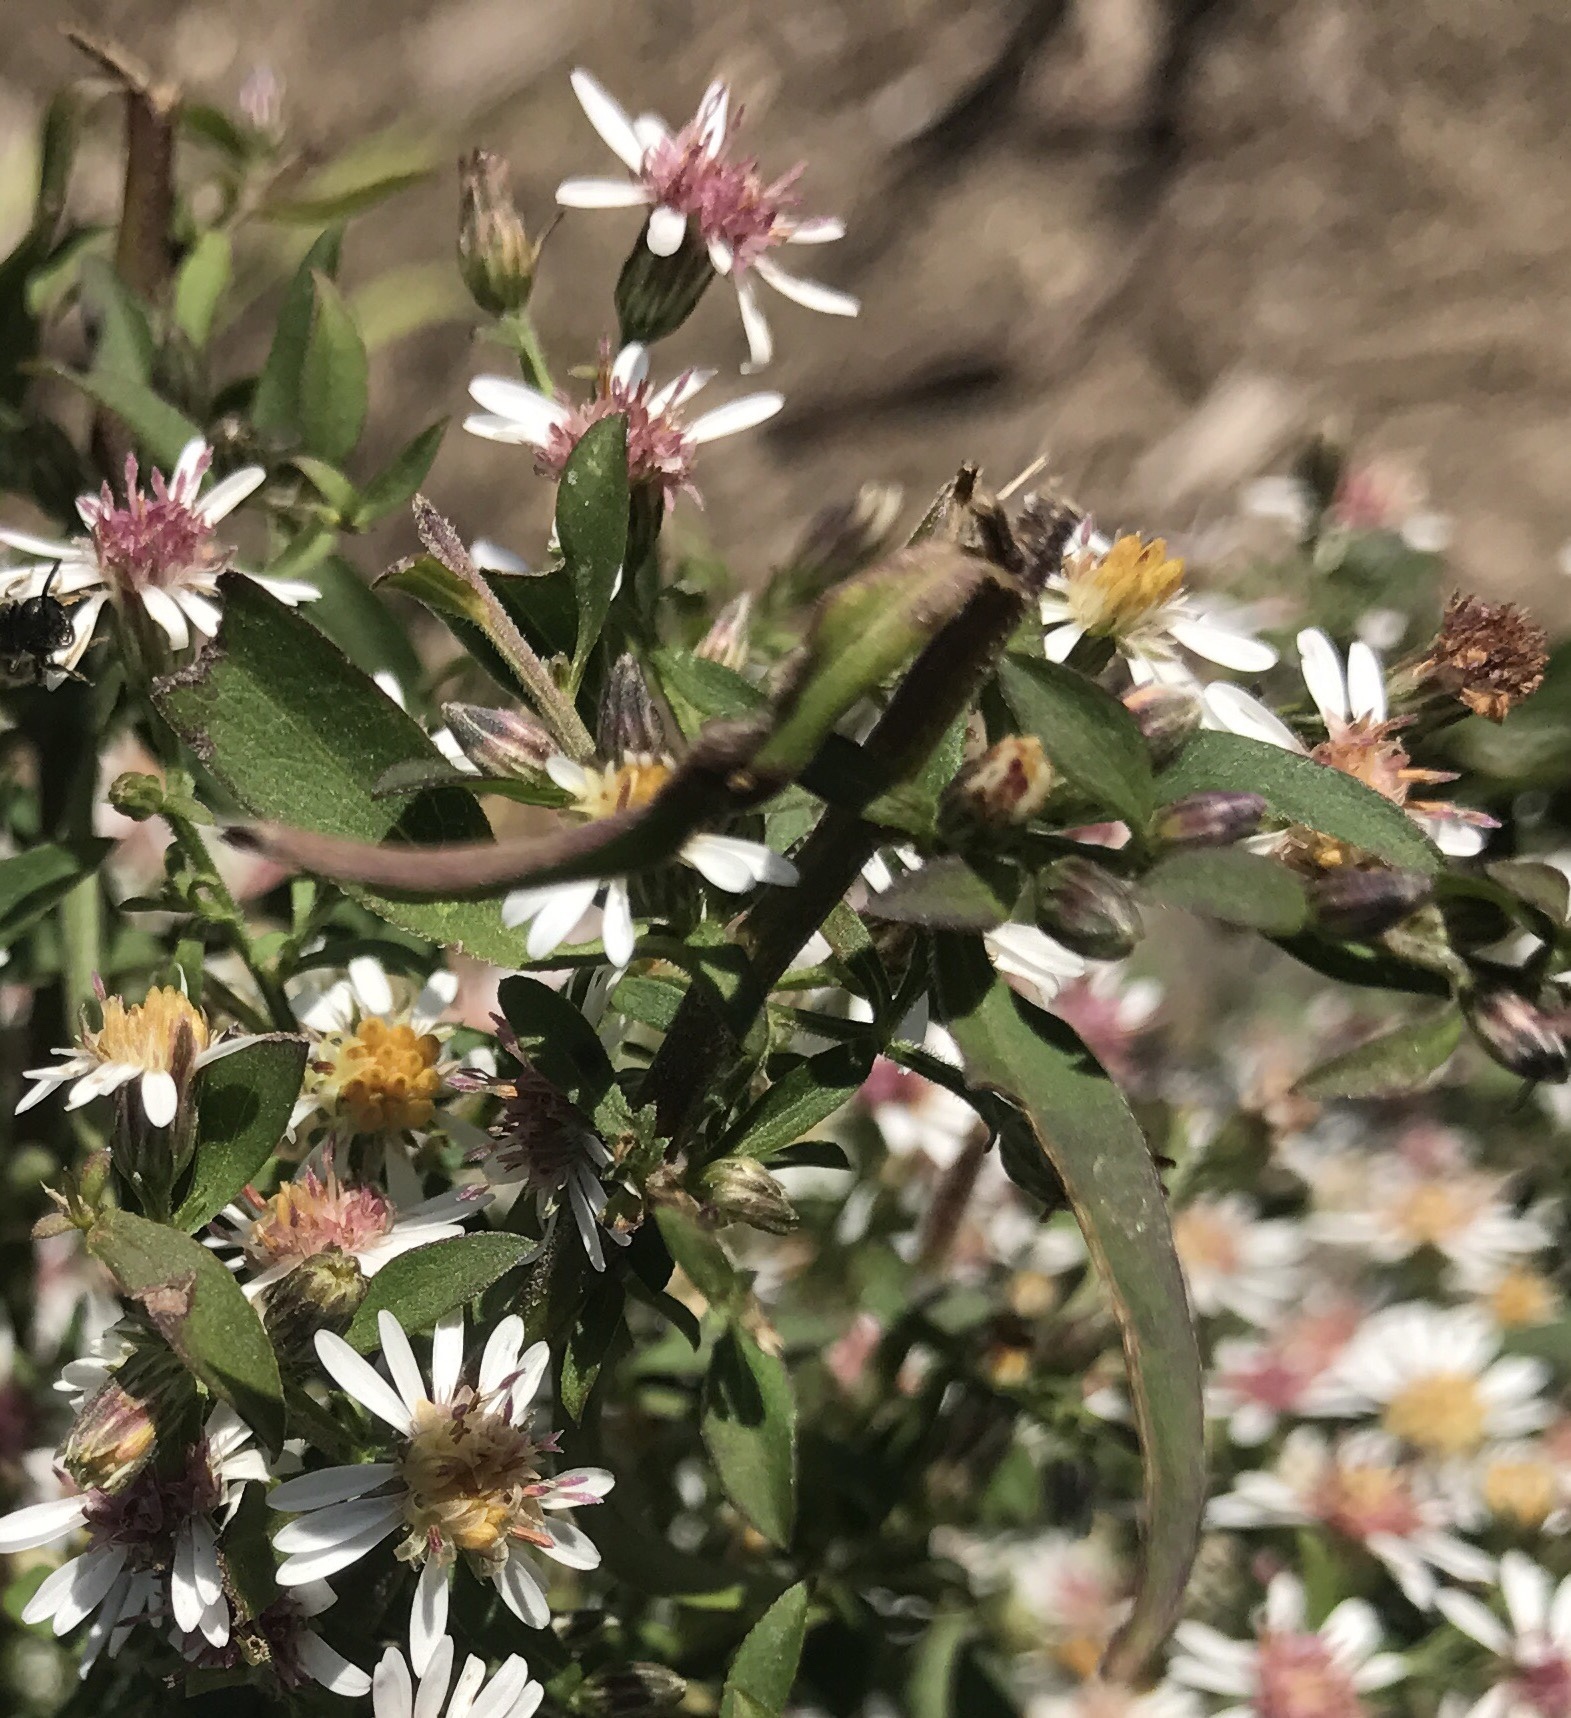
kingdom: Plantae
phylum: Tracheophyta
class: Magnoliopsida
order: Asterales
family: Asteraceae
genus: Symphyotrichum
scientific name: Symphyotrichum lateriflorum
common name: Calico aster
